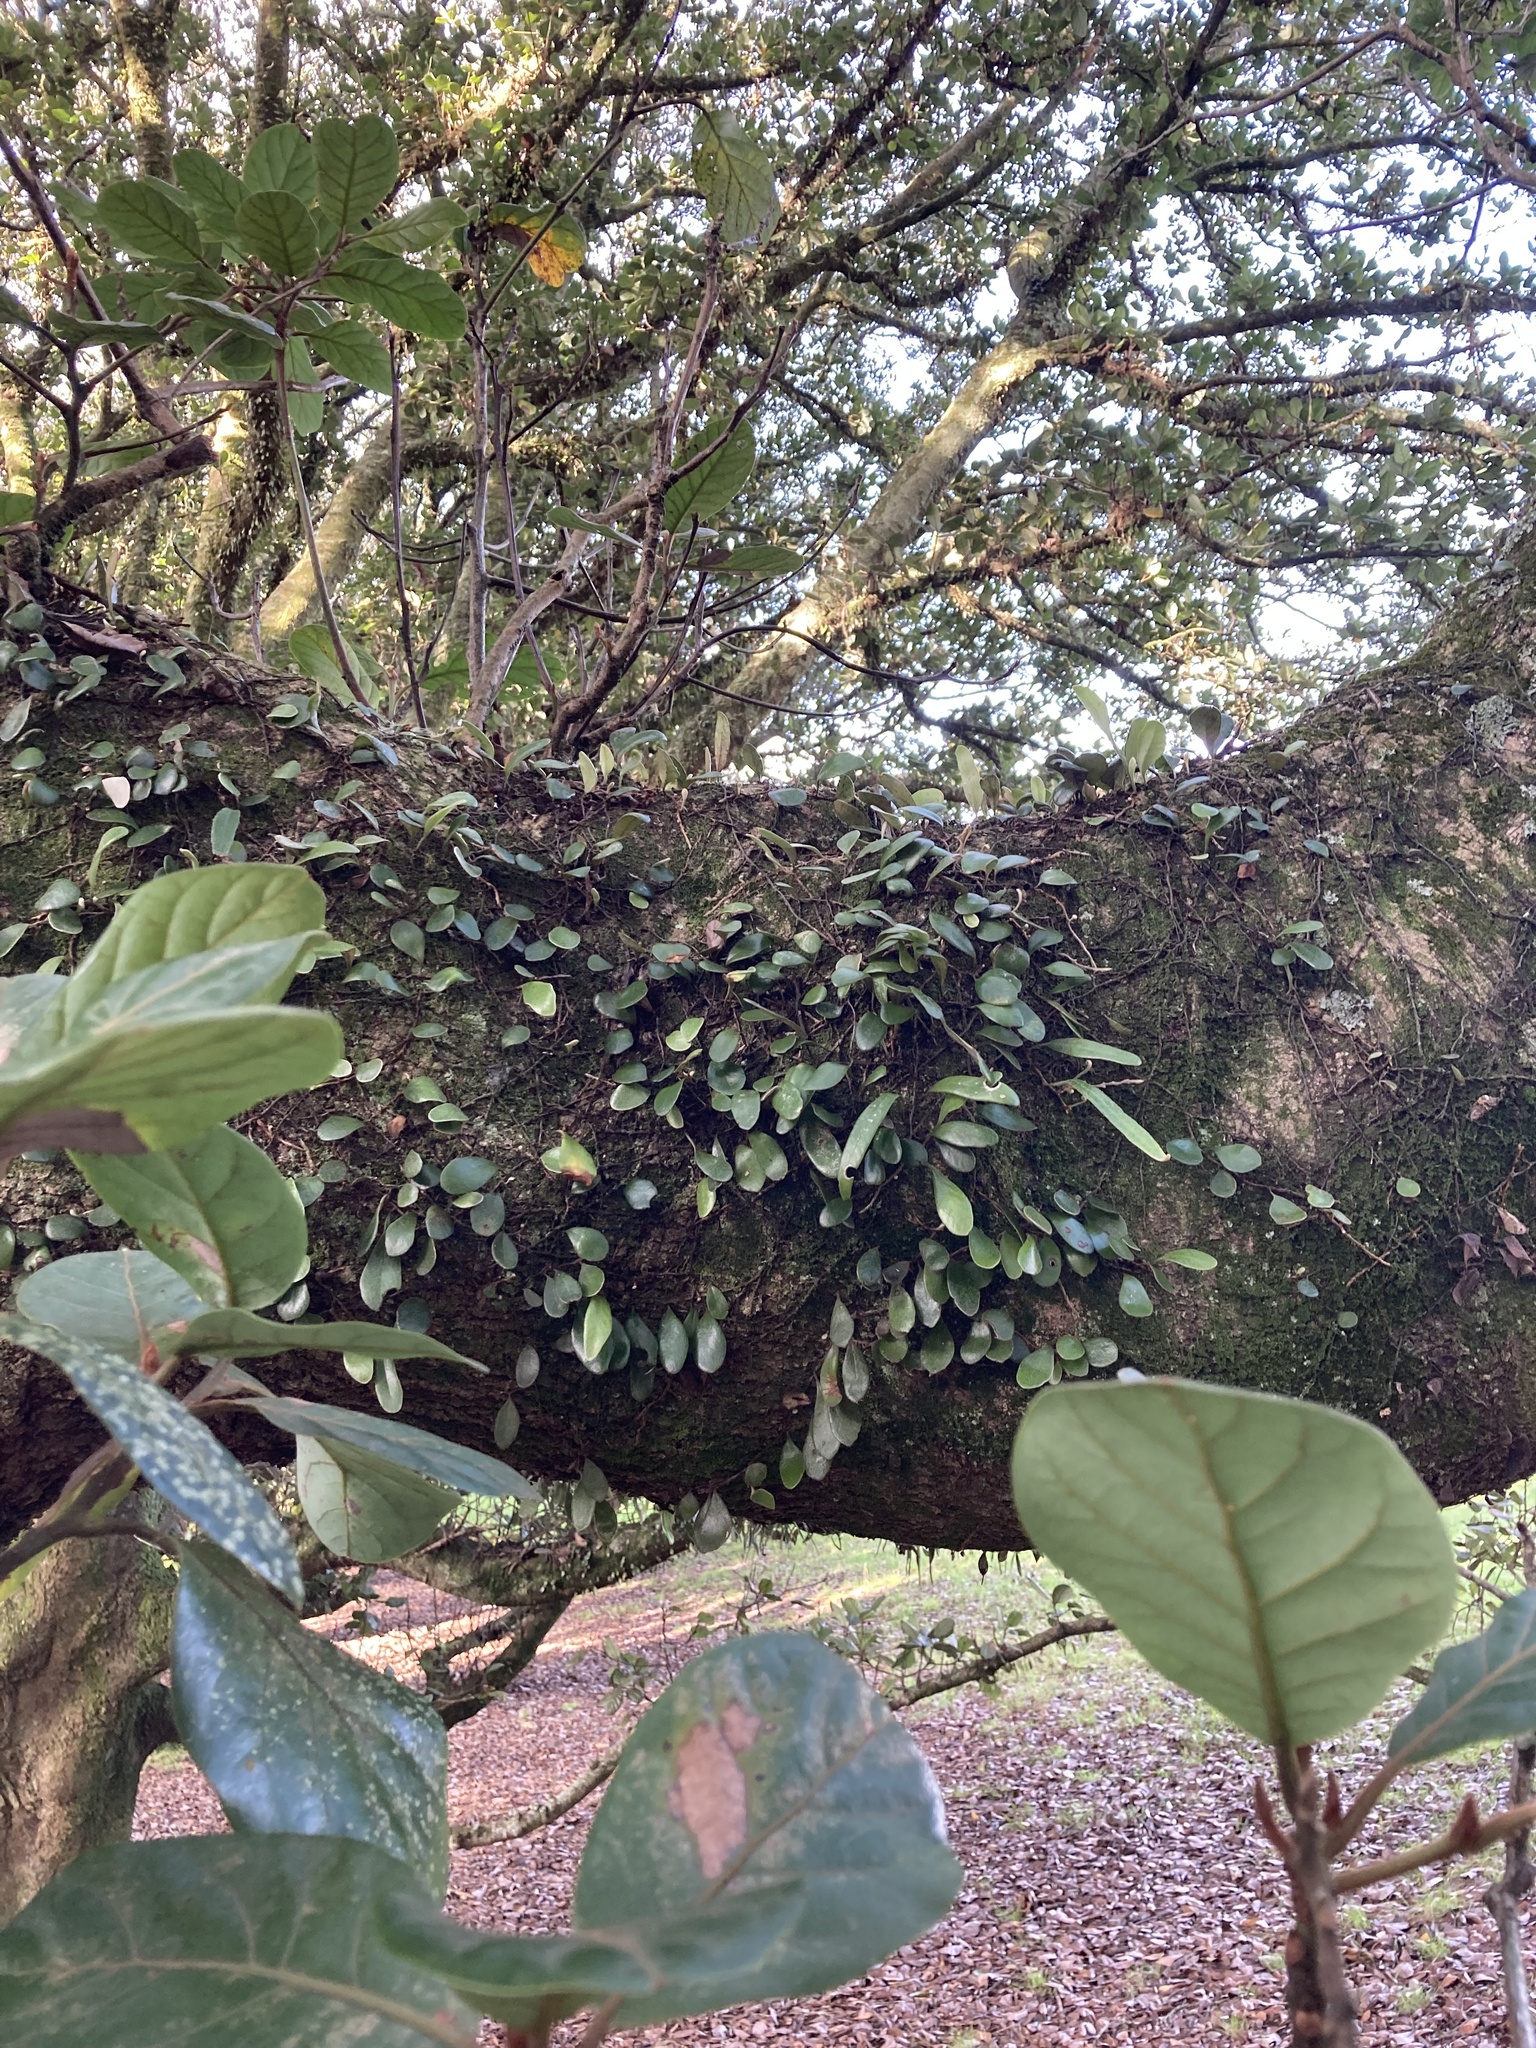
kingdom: Plantae
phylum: Tracheophyta
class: Polypodiopsida
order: Polypodiales
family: Polypodiaceae
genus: Pyrrosia
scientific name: Pyrrosia eleagnifolia
